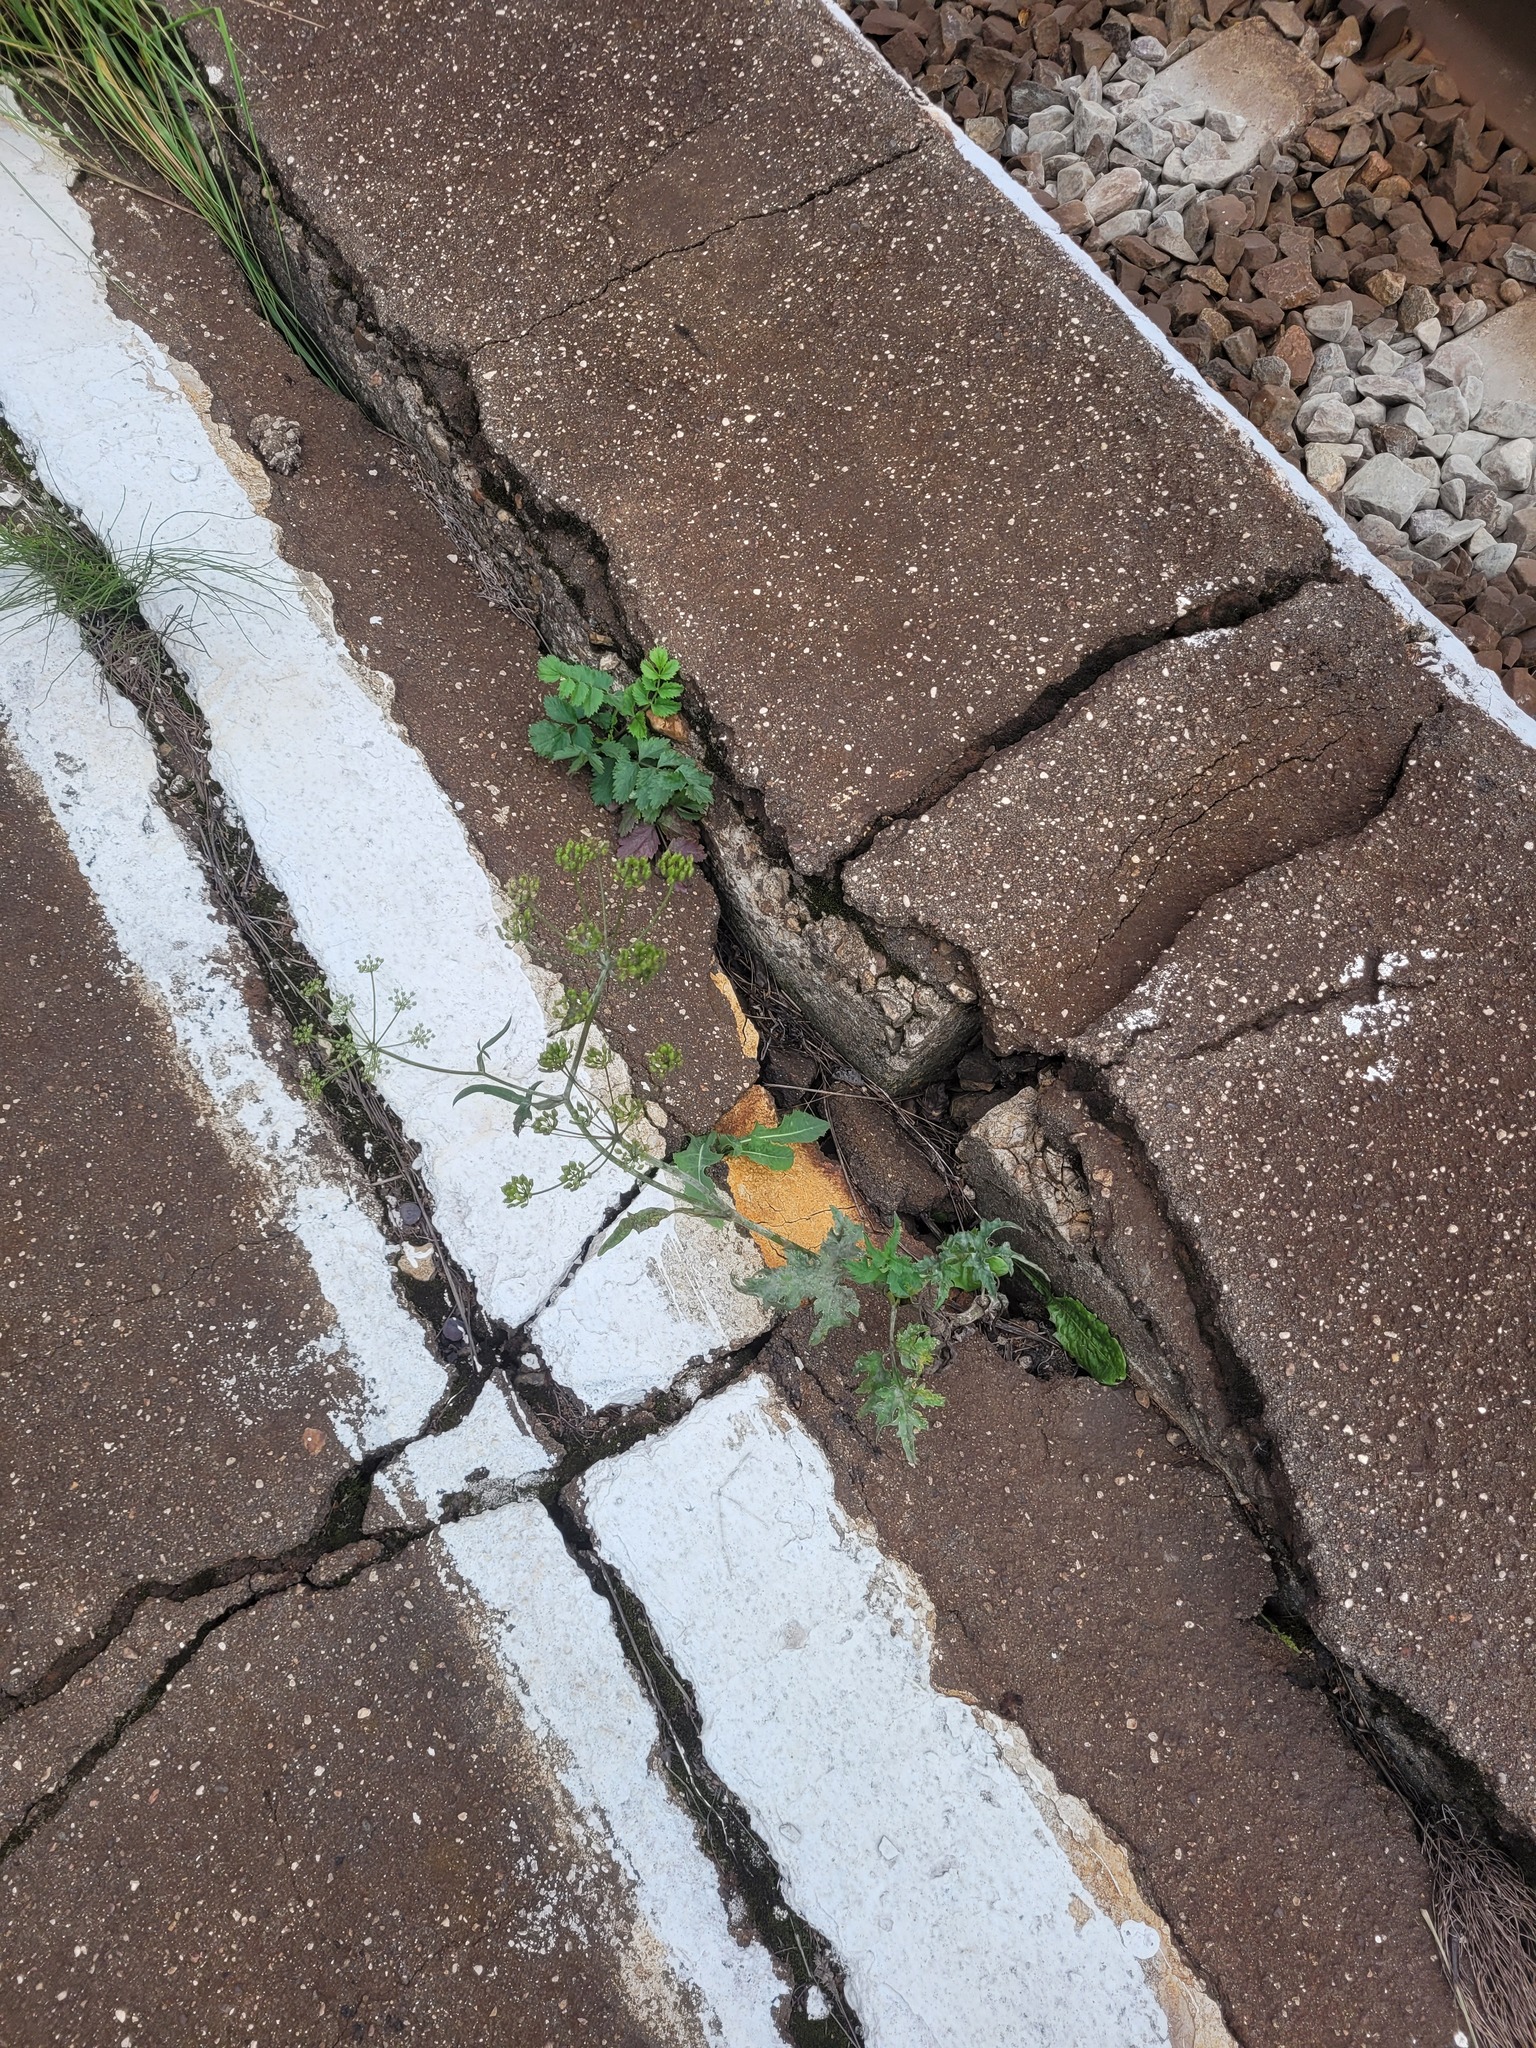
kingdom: Plantae
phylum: Tracheophyta
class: Magnoliopsida
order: Apiales
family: Apiaceae
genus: Heracleum
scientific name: Heracleum sphondylium
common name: Hogweed
